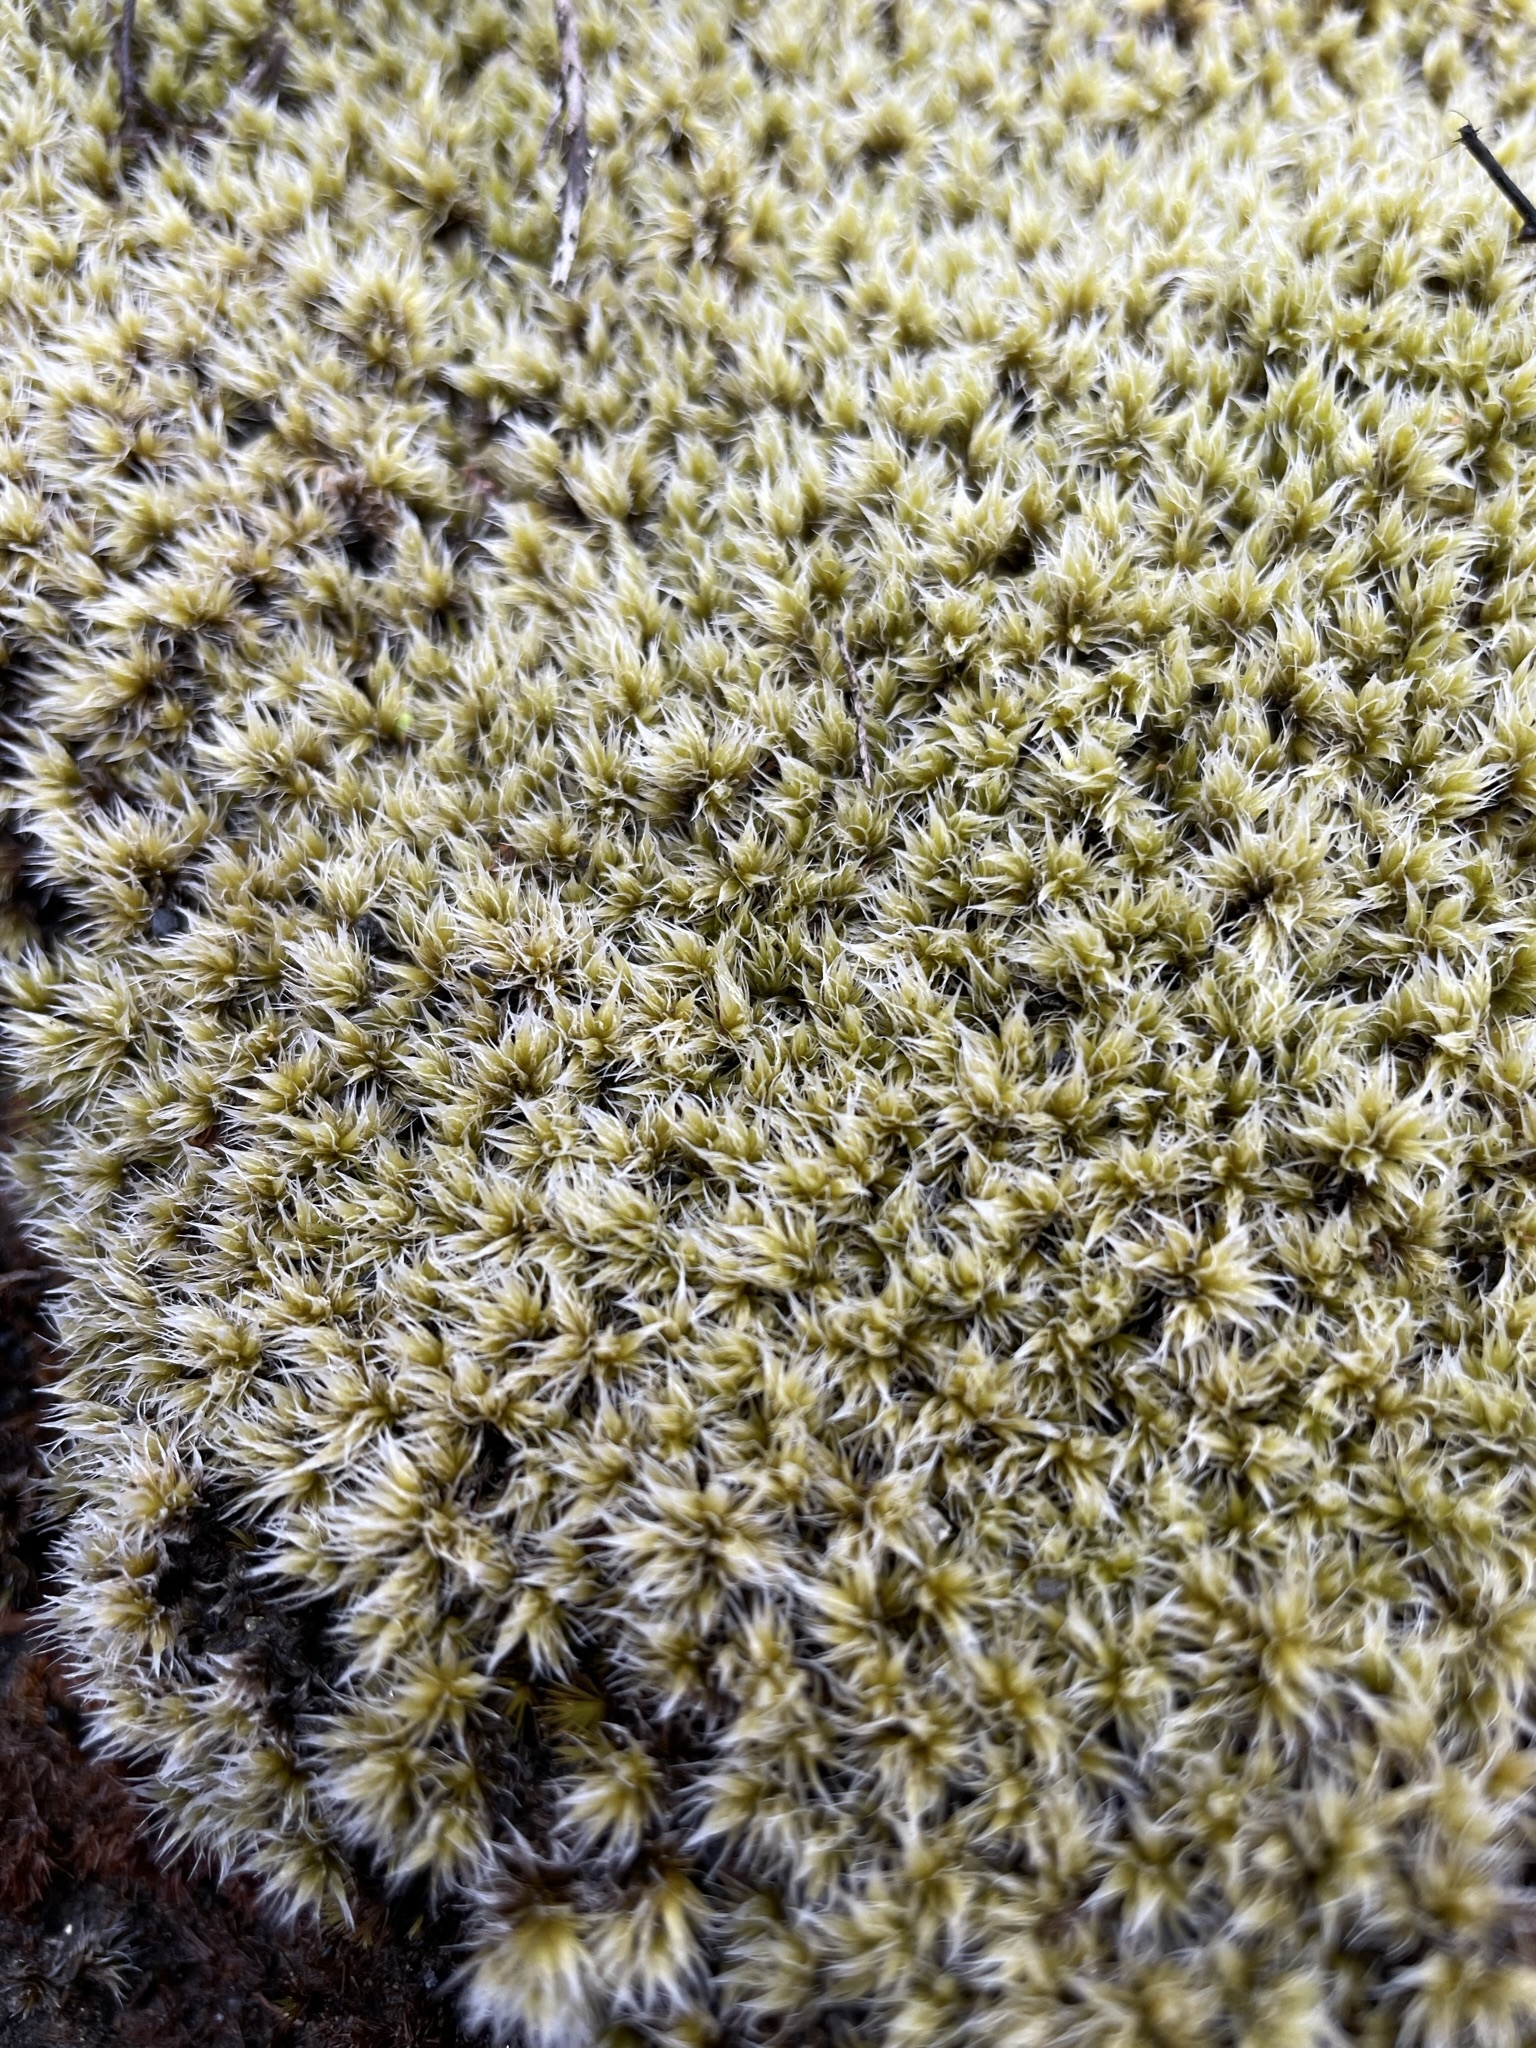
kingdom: Plantae
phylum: Bryophyta
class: Bryopsida
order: Grimmiales
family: Grimmiaceae
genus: Racomitrium
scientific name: Racomitrium lanuginosum
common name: Hoary rock moss
